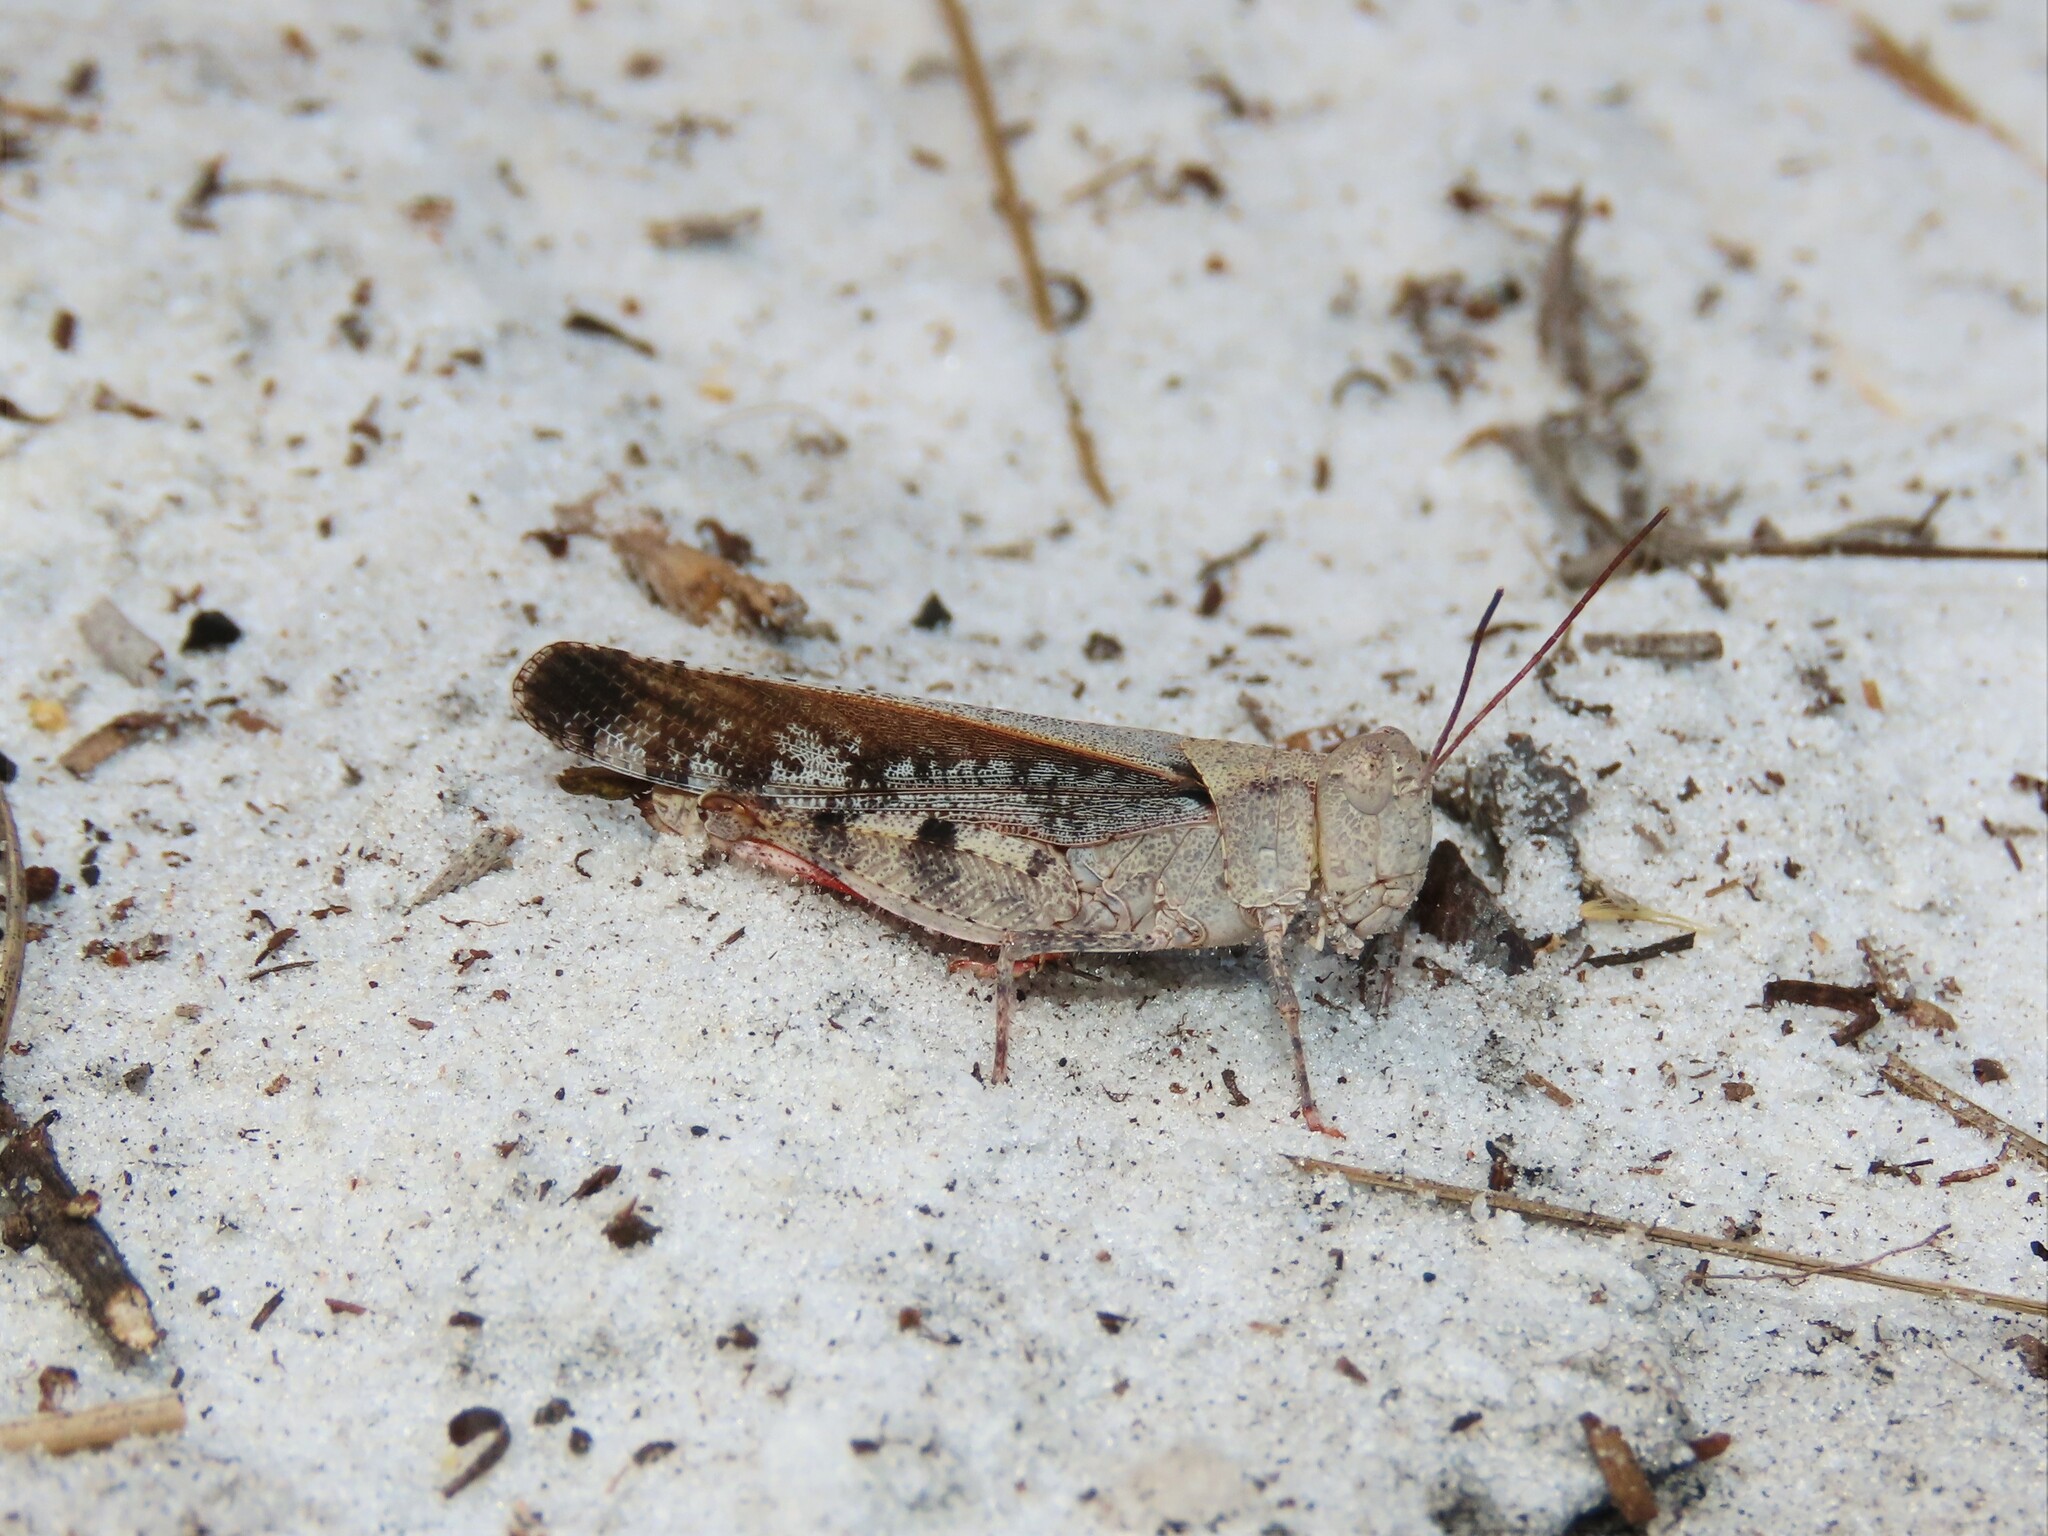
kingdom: Animalia
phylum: Arthropoda
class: Insecta
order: Orthoptera
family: Acrididae
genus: Spharagemon
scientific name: Spharagemon marmoratum
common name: Marbled grasshopper
